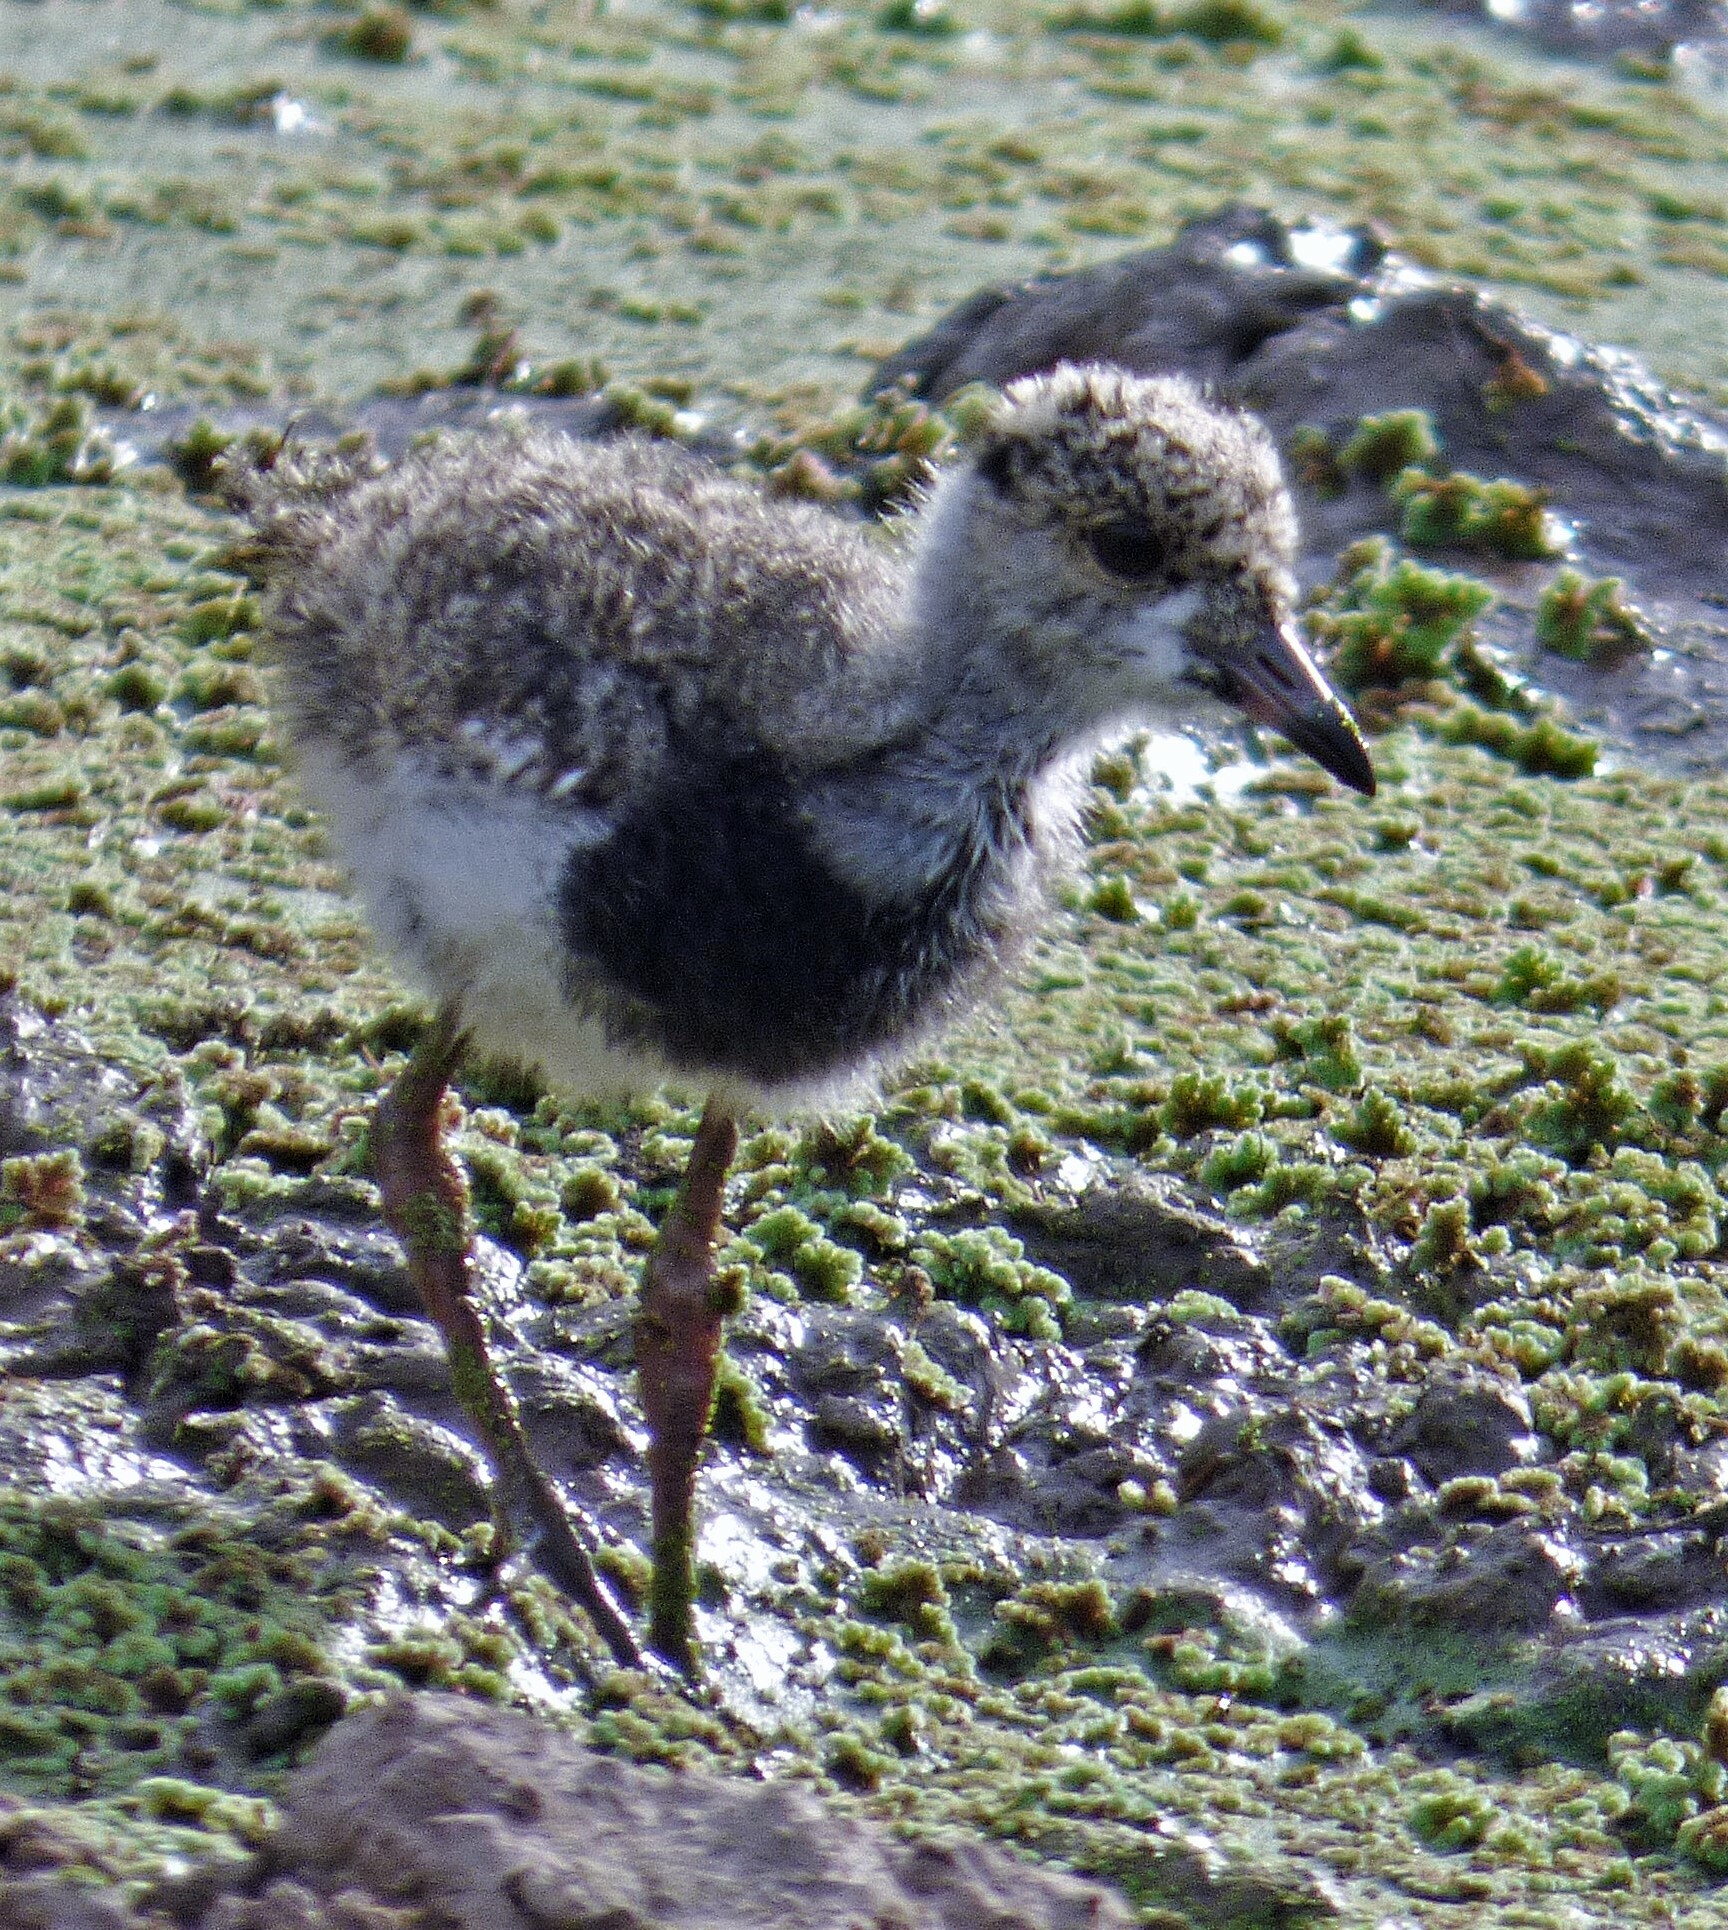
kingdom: Animalia
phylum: Chordata
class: Aves
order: Charadriiformes
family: Charadriidae
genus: Vanellus
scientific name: Vanellus chilensis
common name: Southern lapwing
